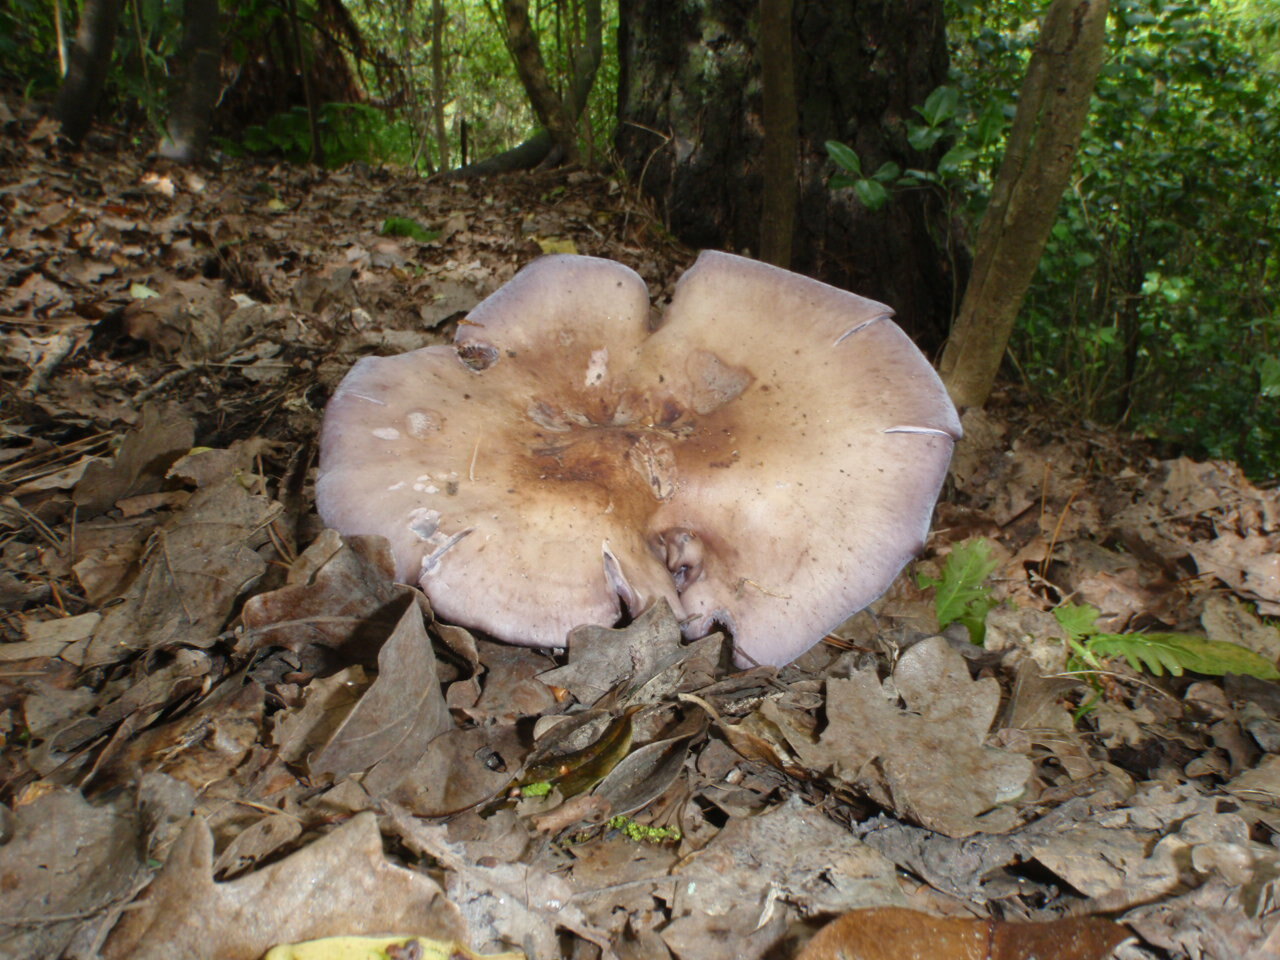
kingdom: Fungi
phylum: Basidiomycota
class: Agaricomycetes
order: Agaricales
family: Tricholomataceae
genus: Collybia
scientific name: Collybia
